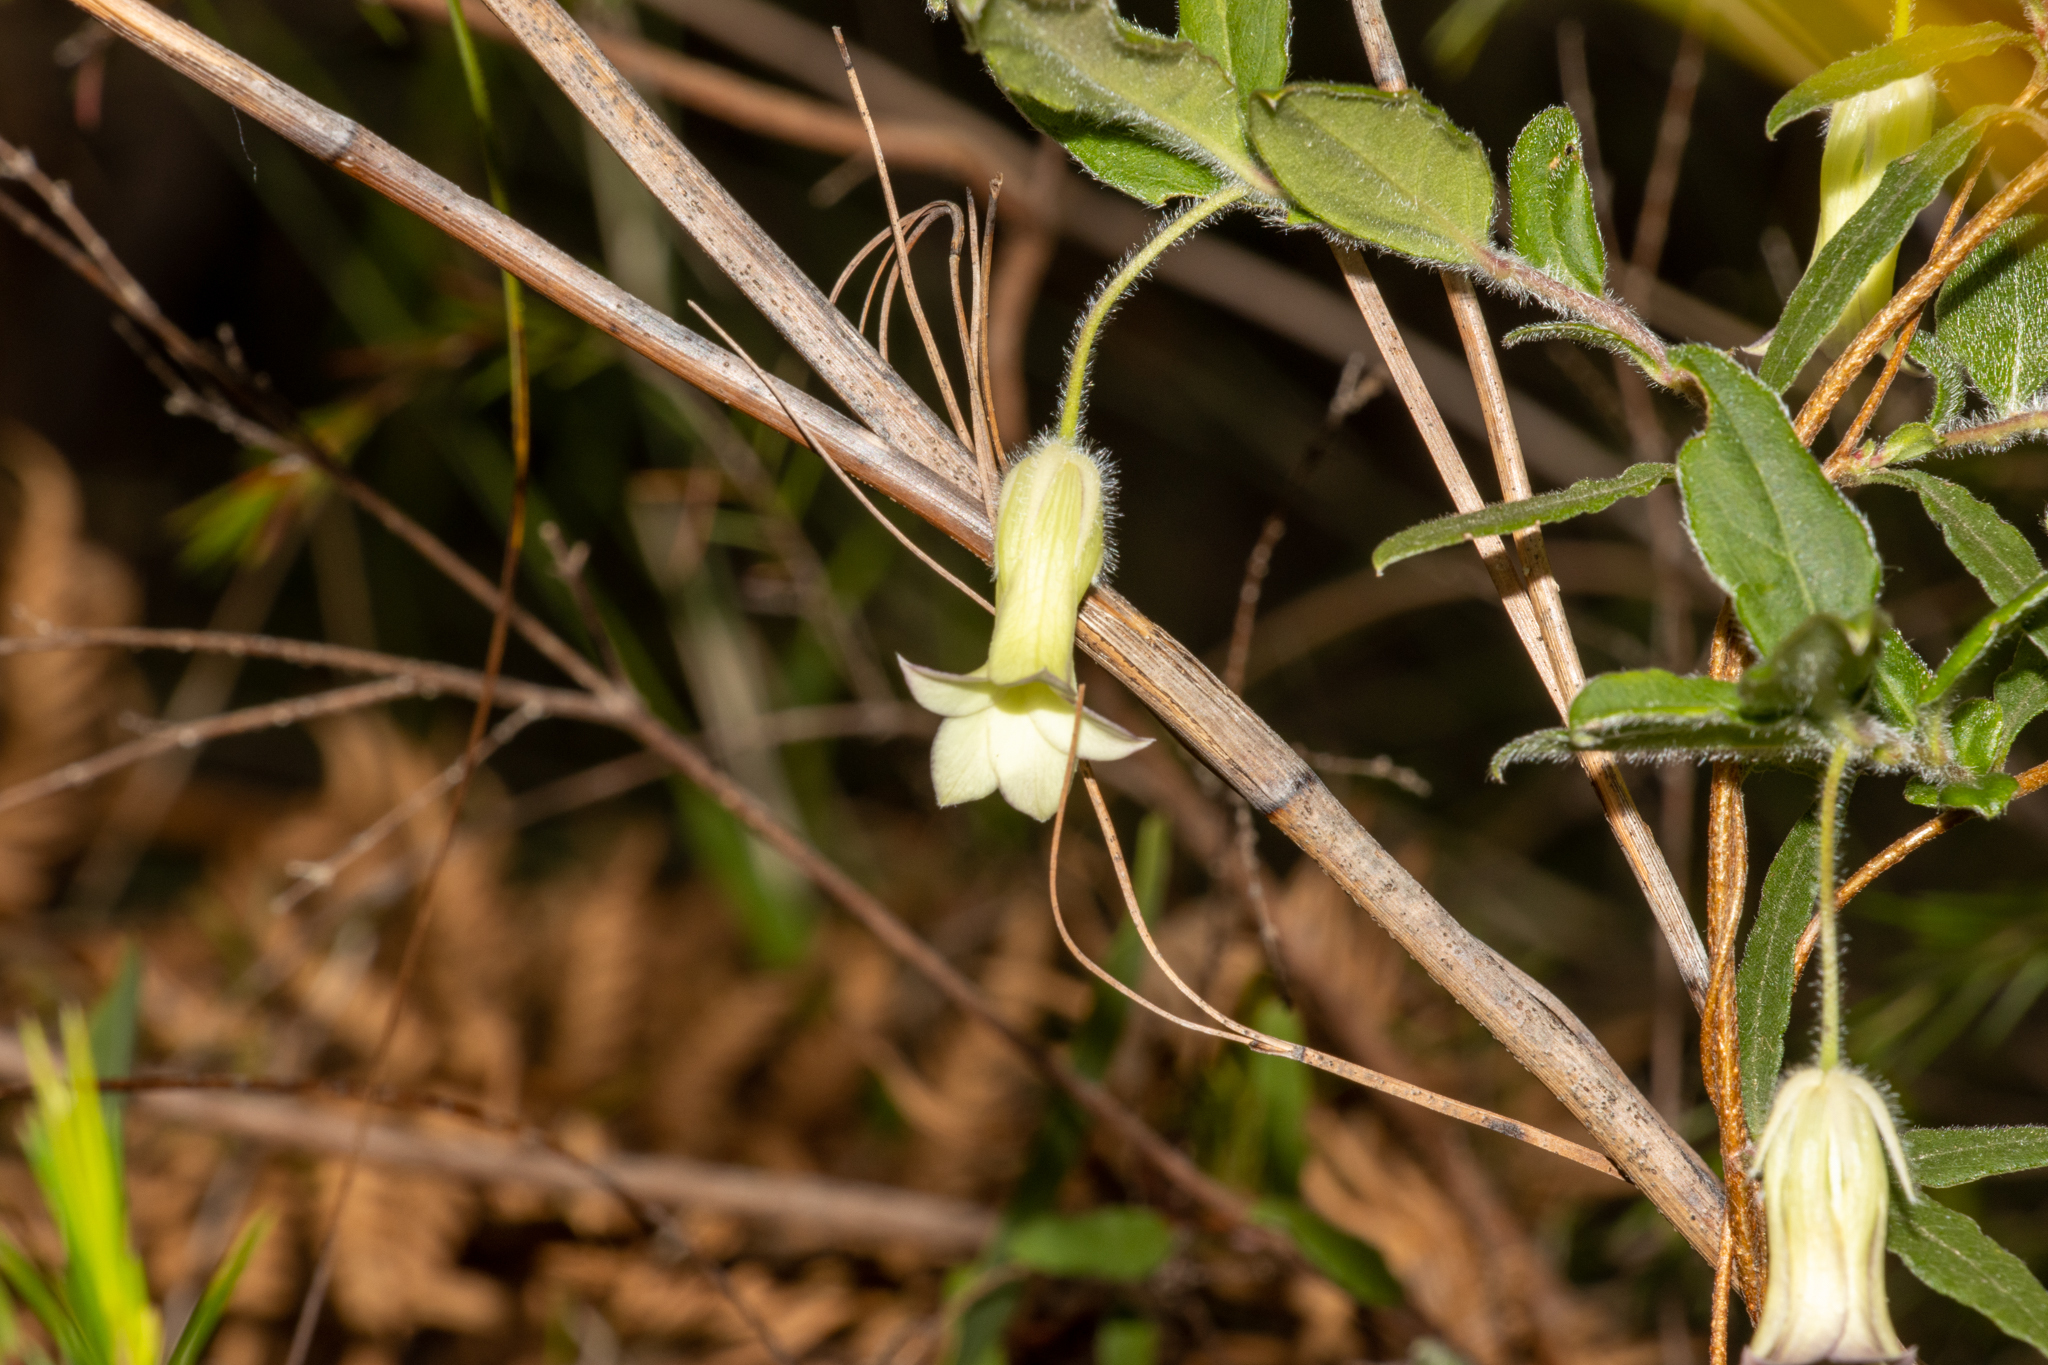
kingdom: Plantae
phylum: Tracheophyta
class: Magnoliopsida
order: Apiales
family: Pittosporaceae
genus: Billardiera
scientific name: Billardiera scandens
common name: Apple-berry
